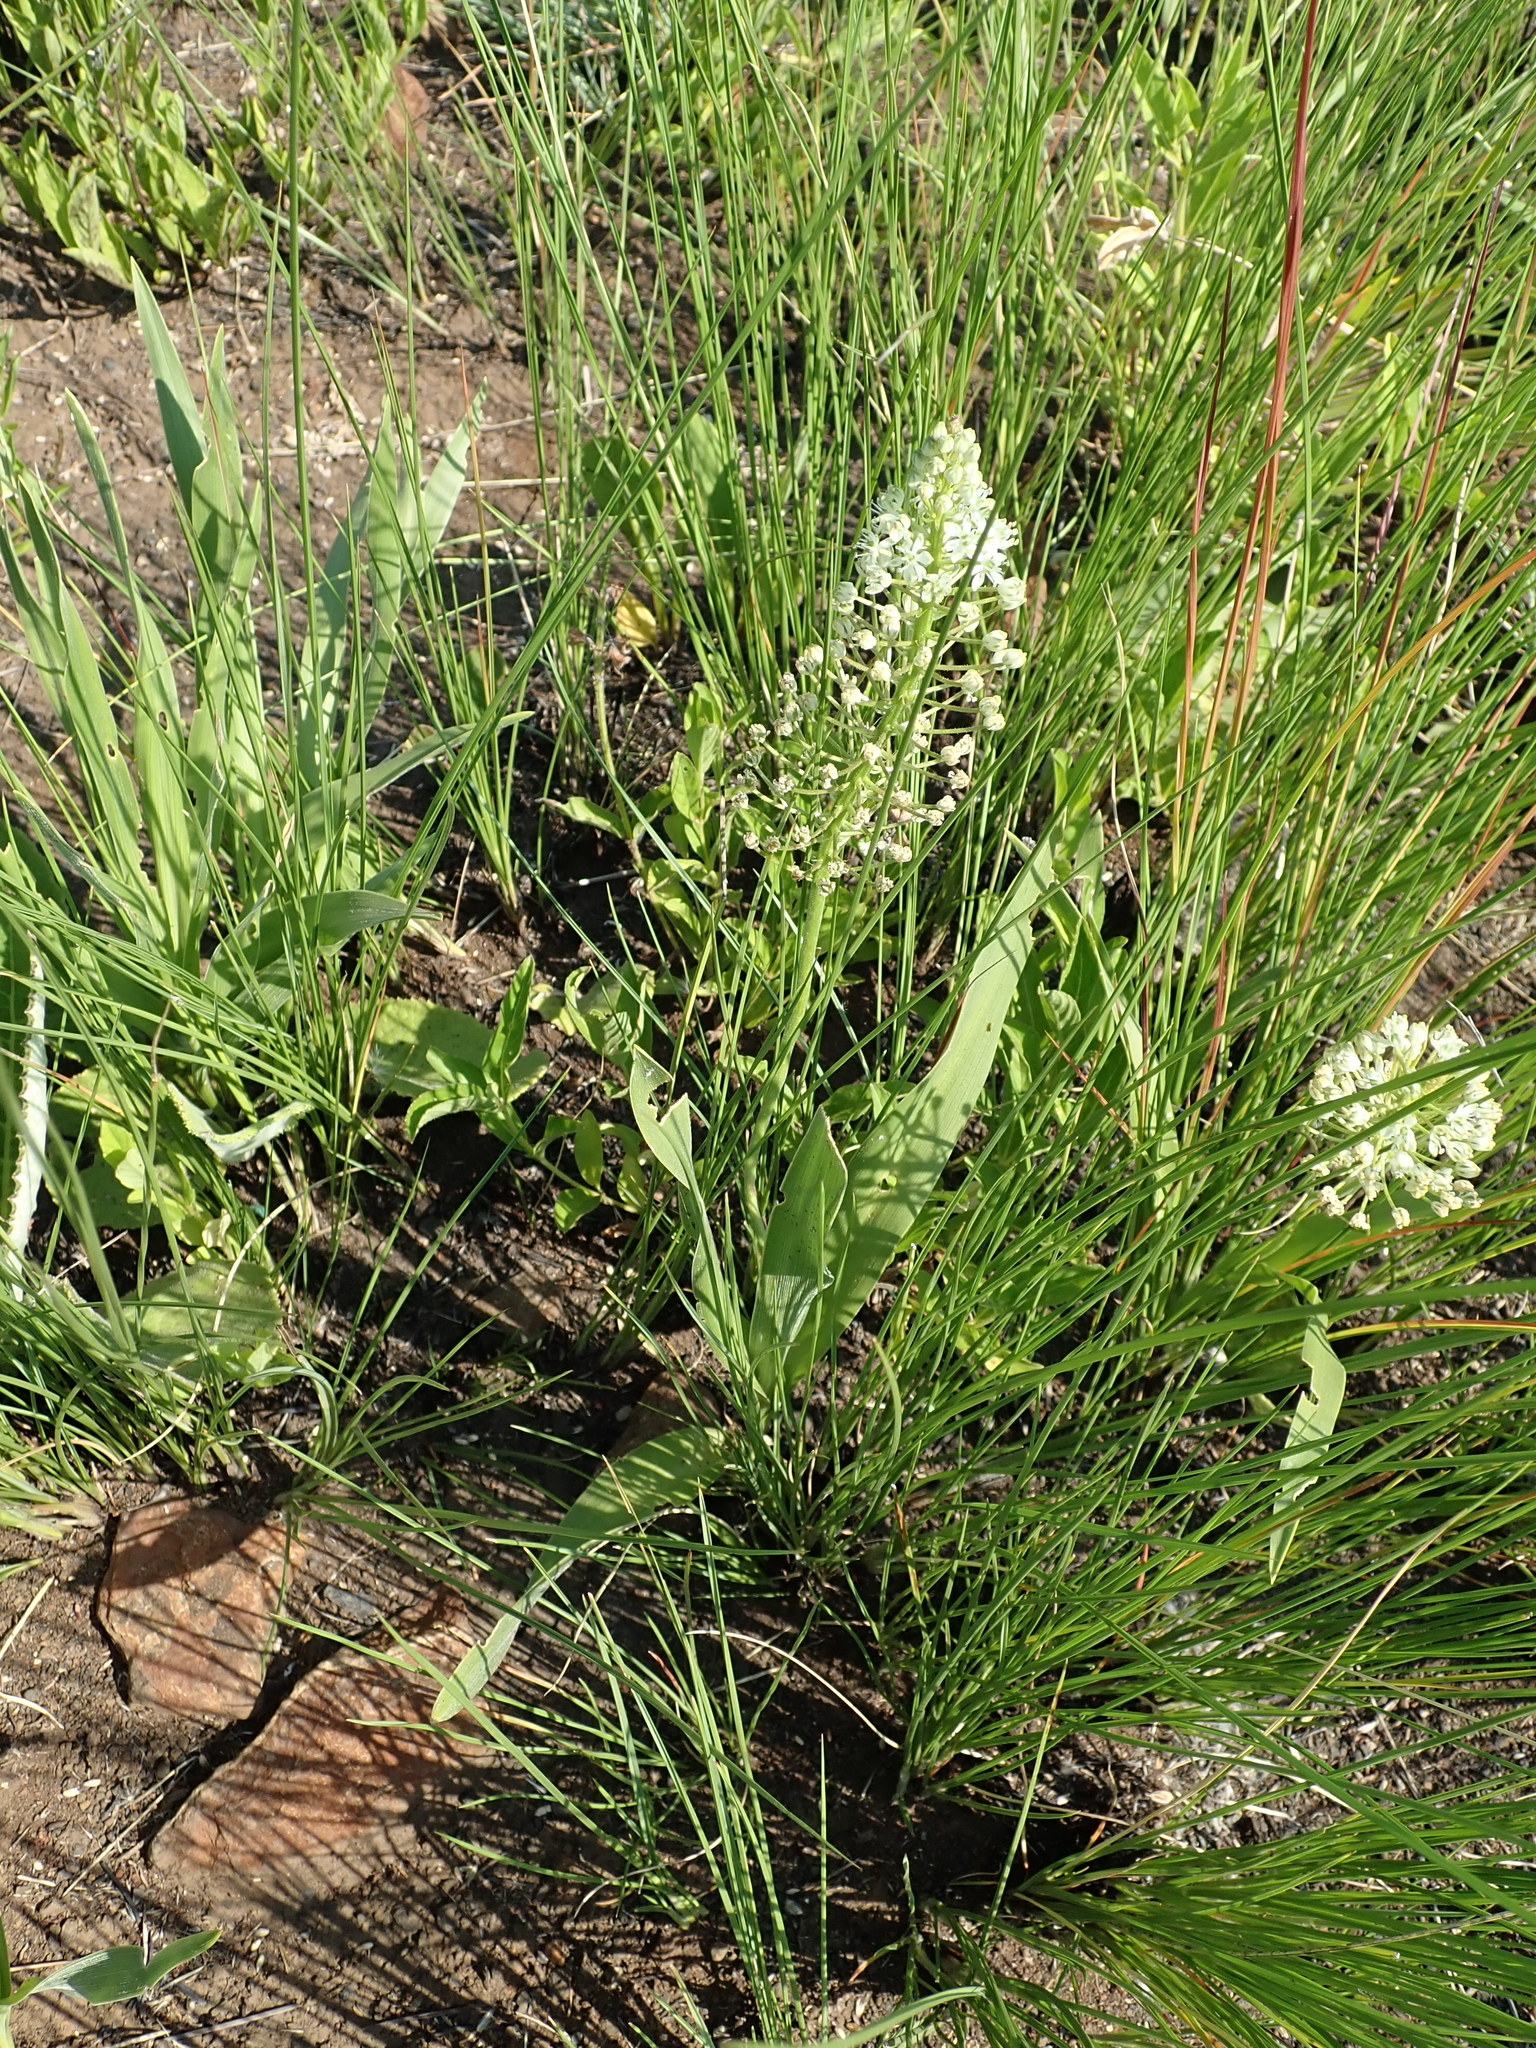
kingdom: Plantae
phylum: Tracheophyta
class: Liliopsida
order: Asparagales
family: Asparagaceae
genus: Schizocarphus
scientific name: Schizocarphus nervosus
